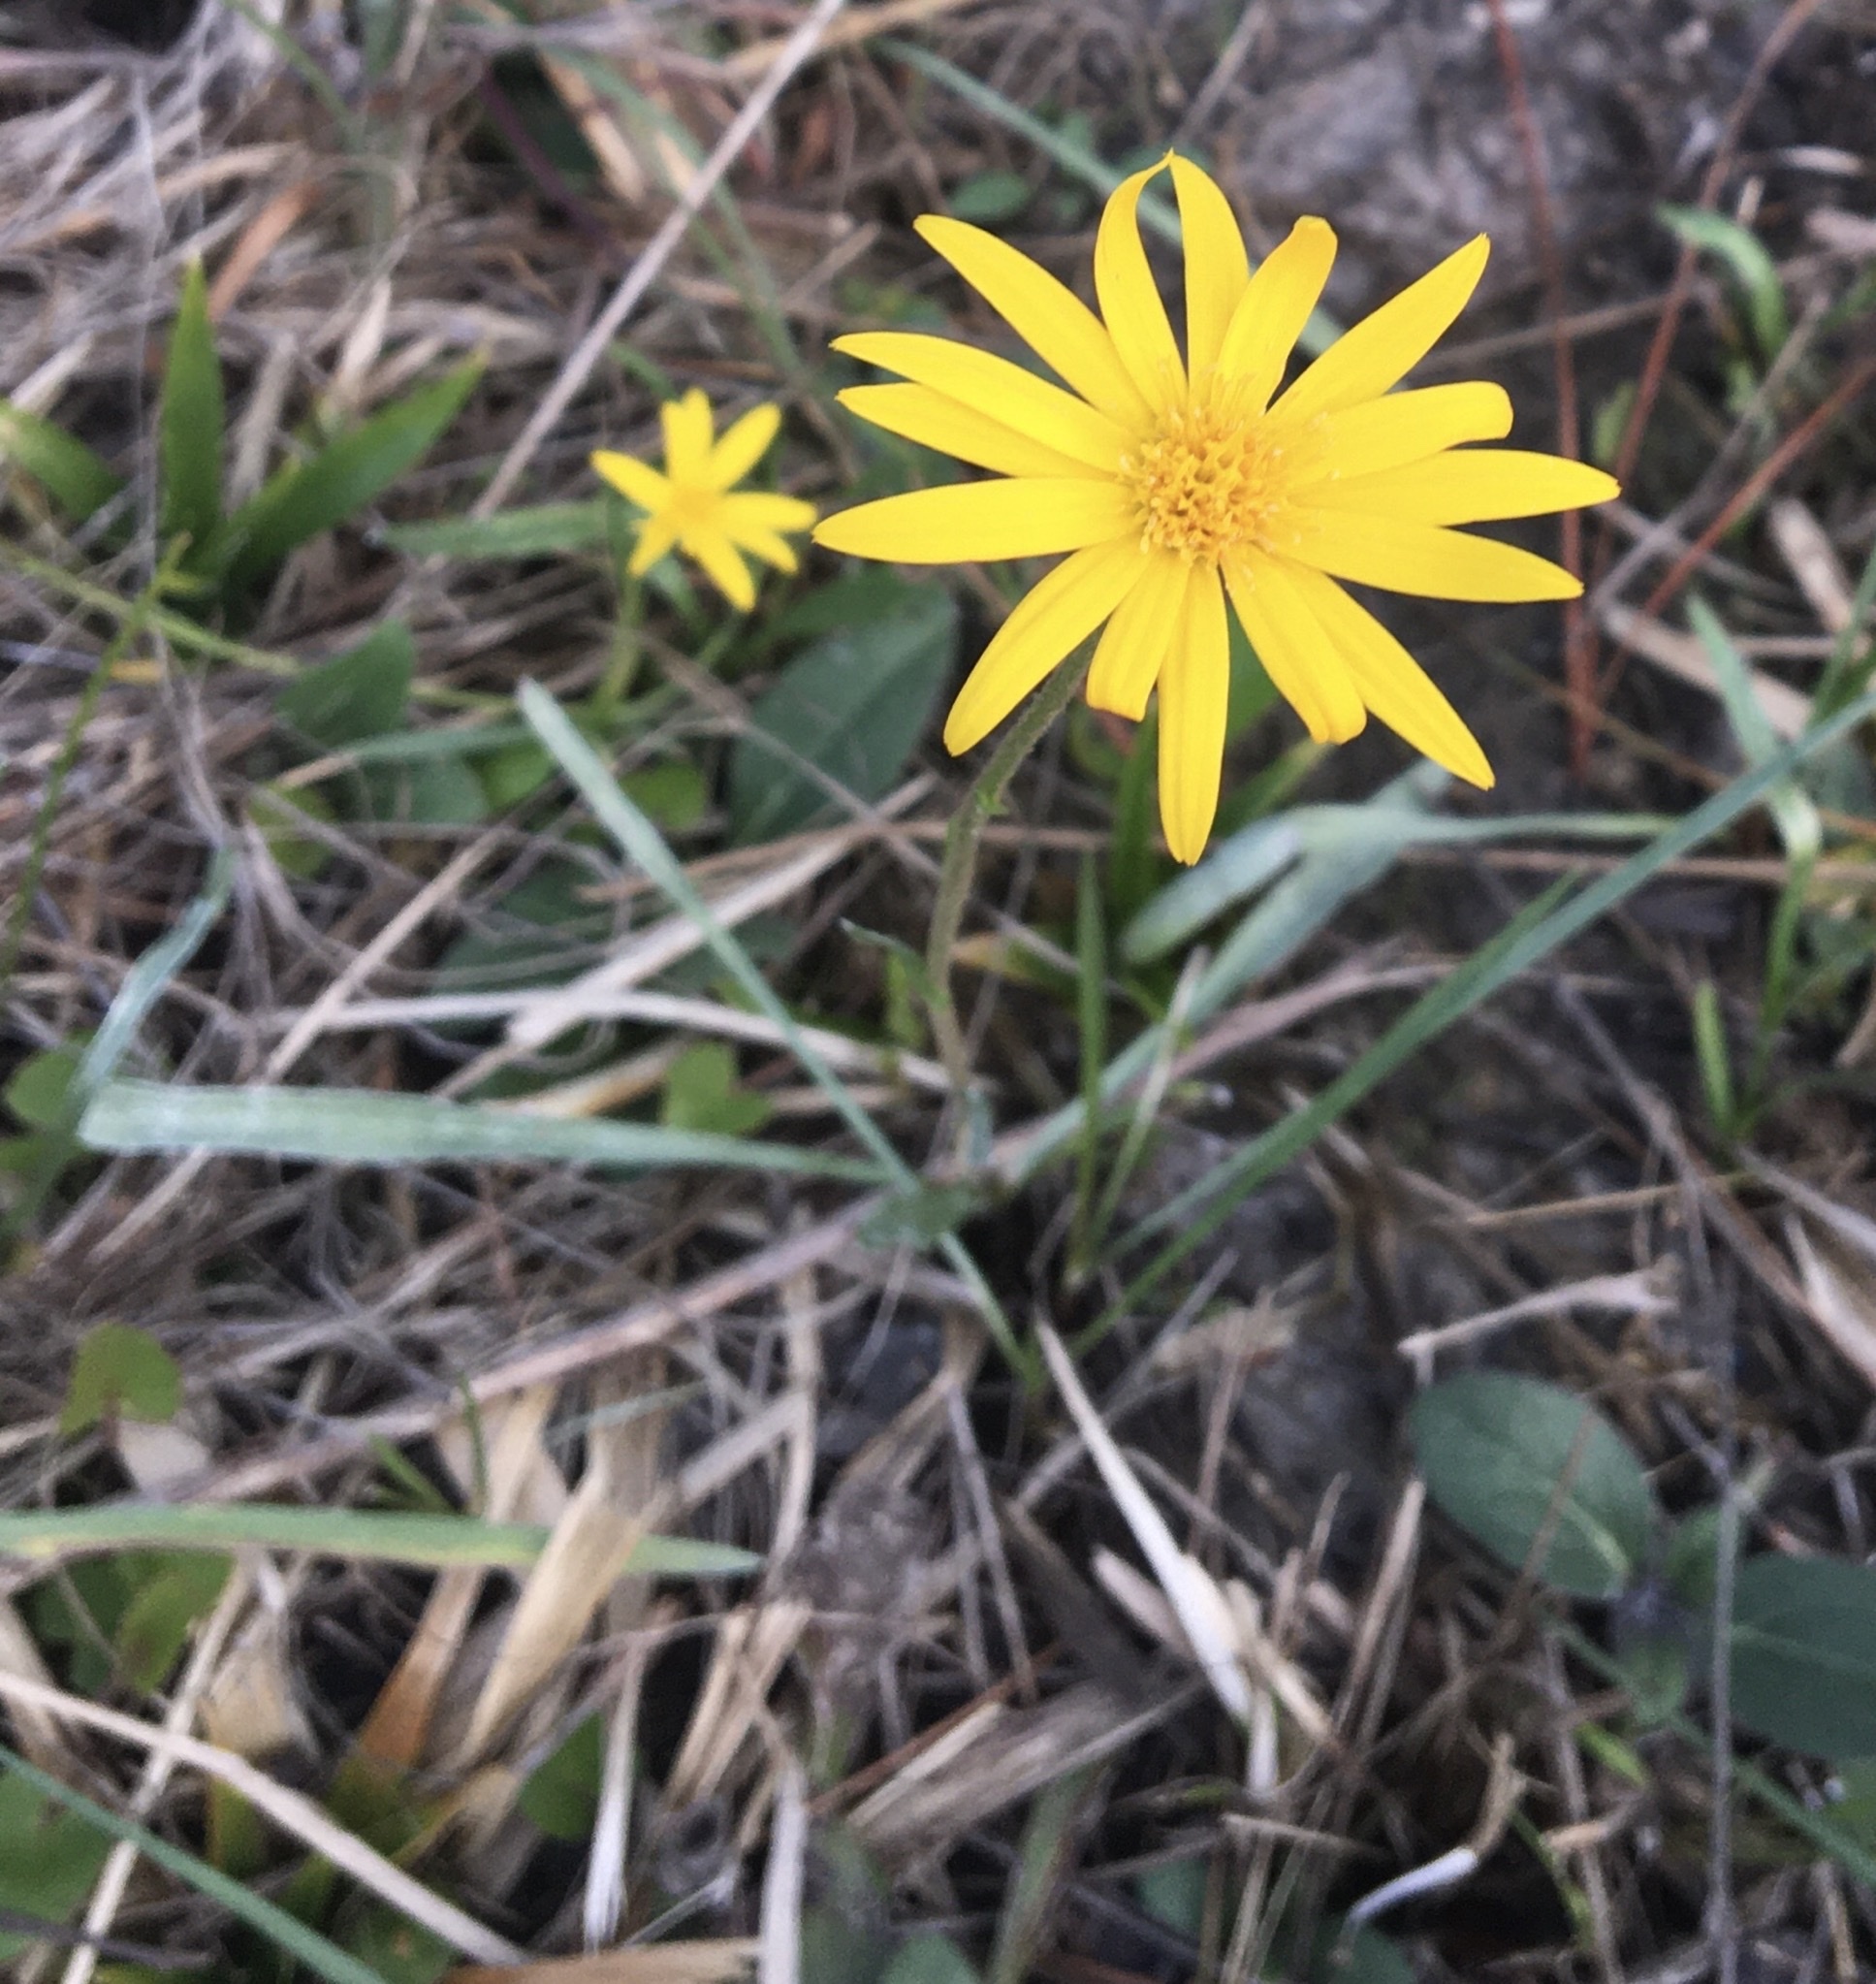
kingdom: Plantae
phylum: Tracheophyta
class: Magnoliopsida
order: Asterales
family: Asteraceae
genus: Pityopsis
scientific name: Pityopsis oligantha
